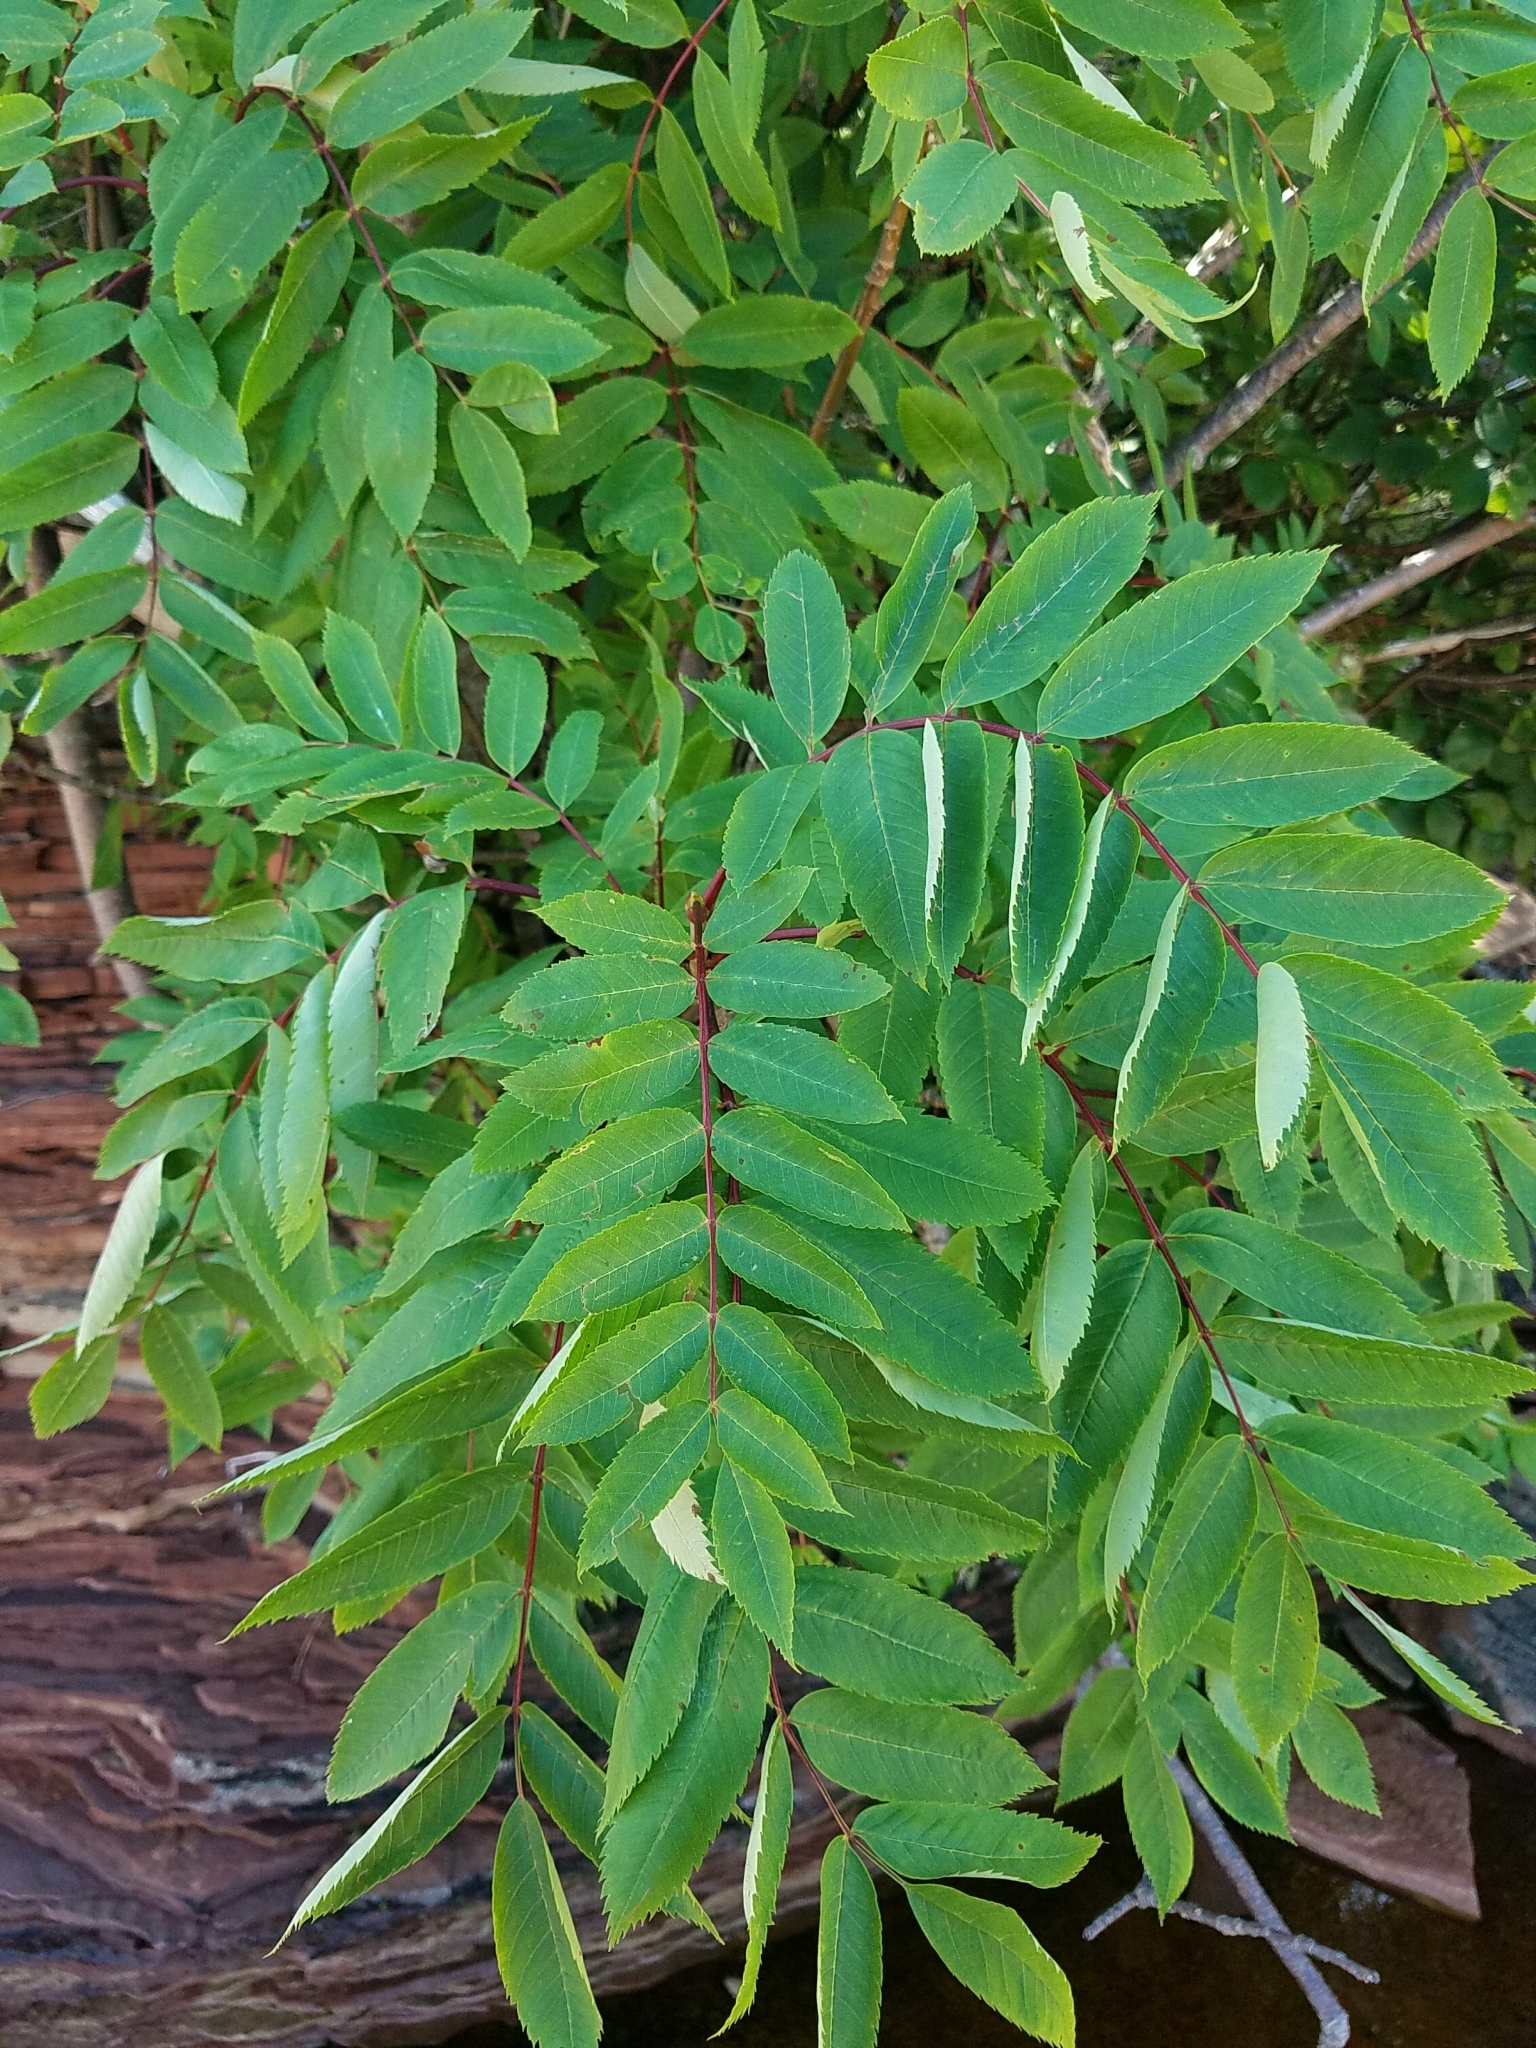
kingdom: Plantae
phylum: Tracheophyta
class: Magnoliopsida
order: Rosales
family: Rosaceae
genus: Sorbus
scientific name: Sorbus americana
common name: American mountain-ash
